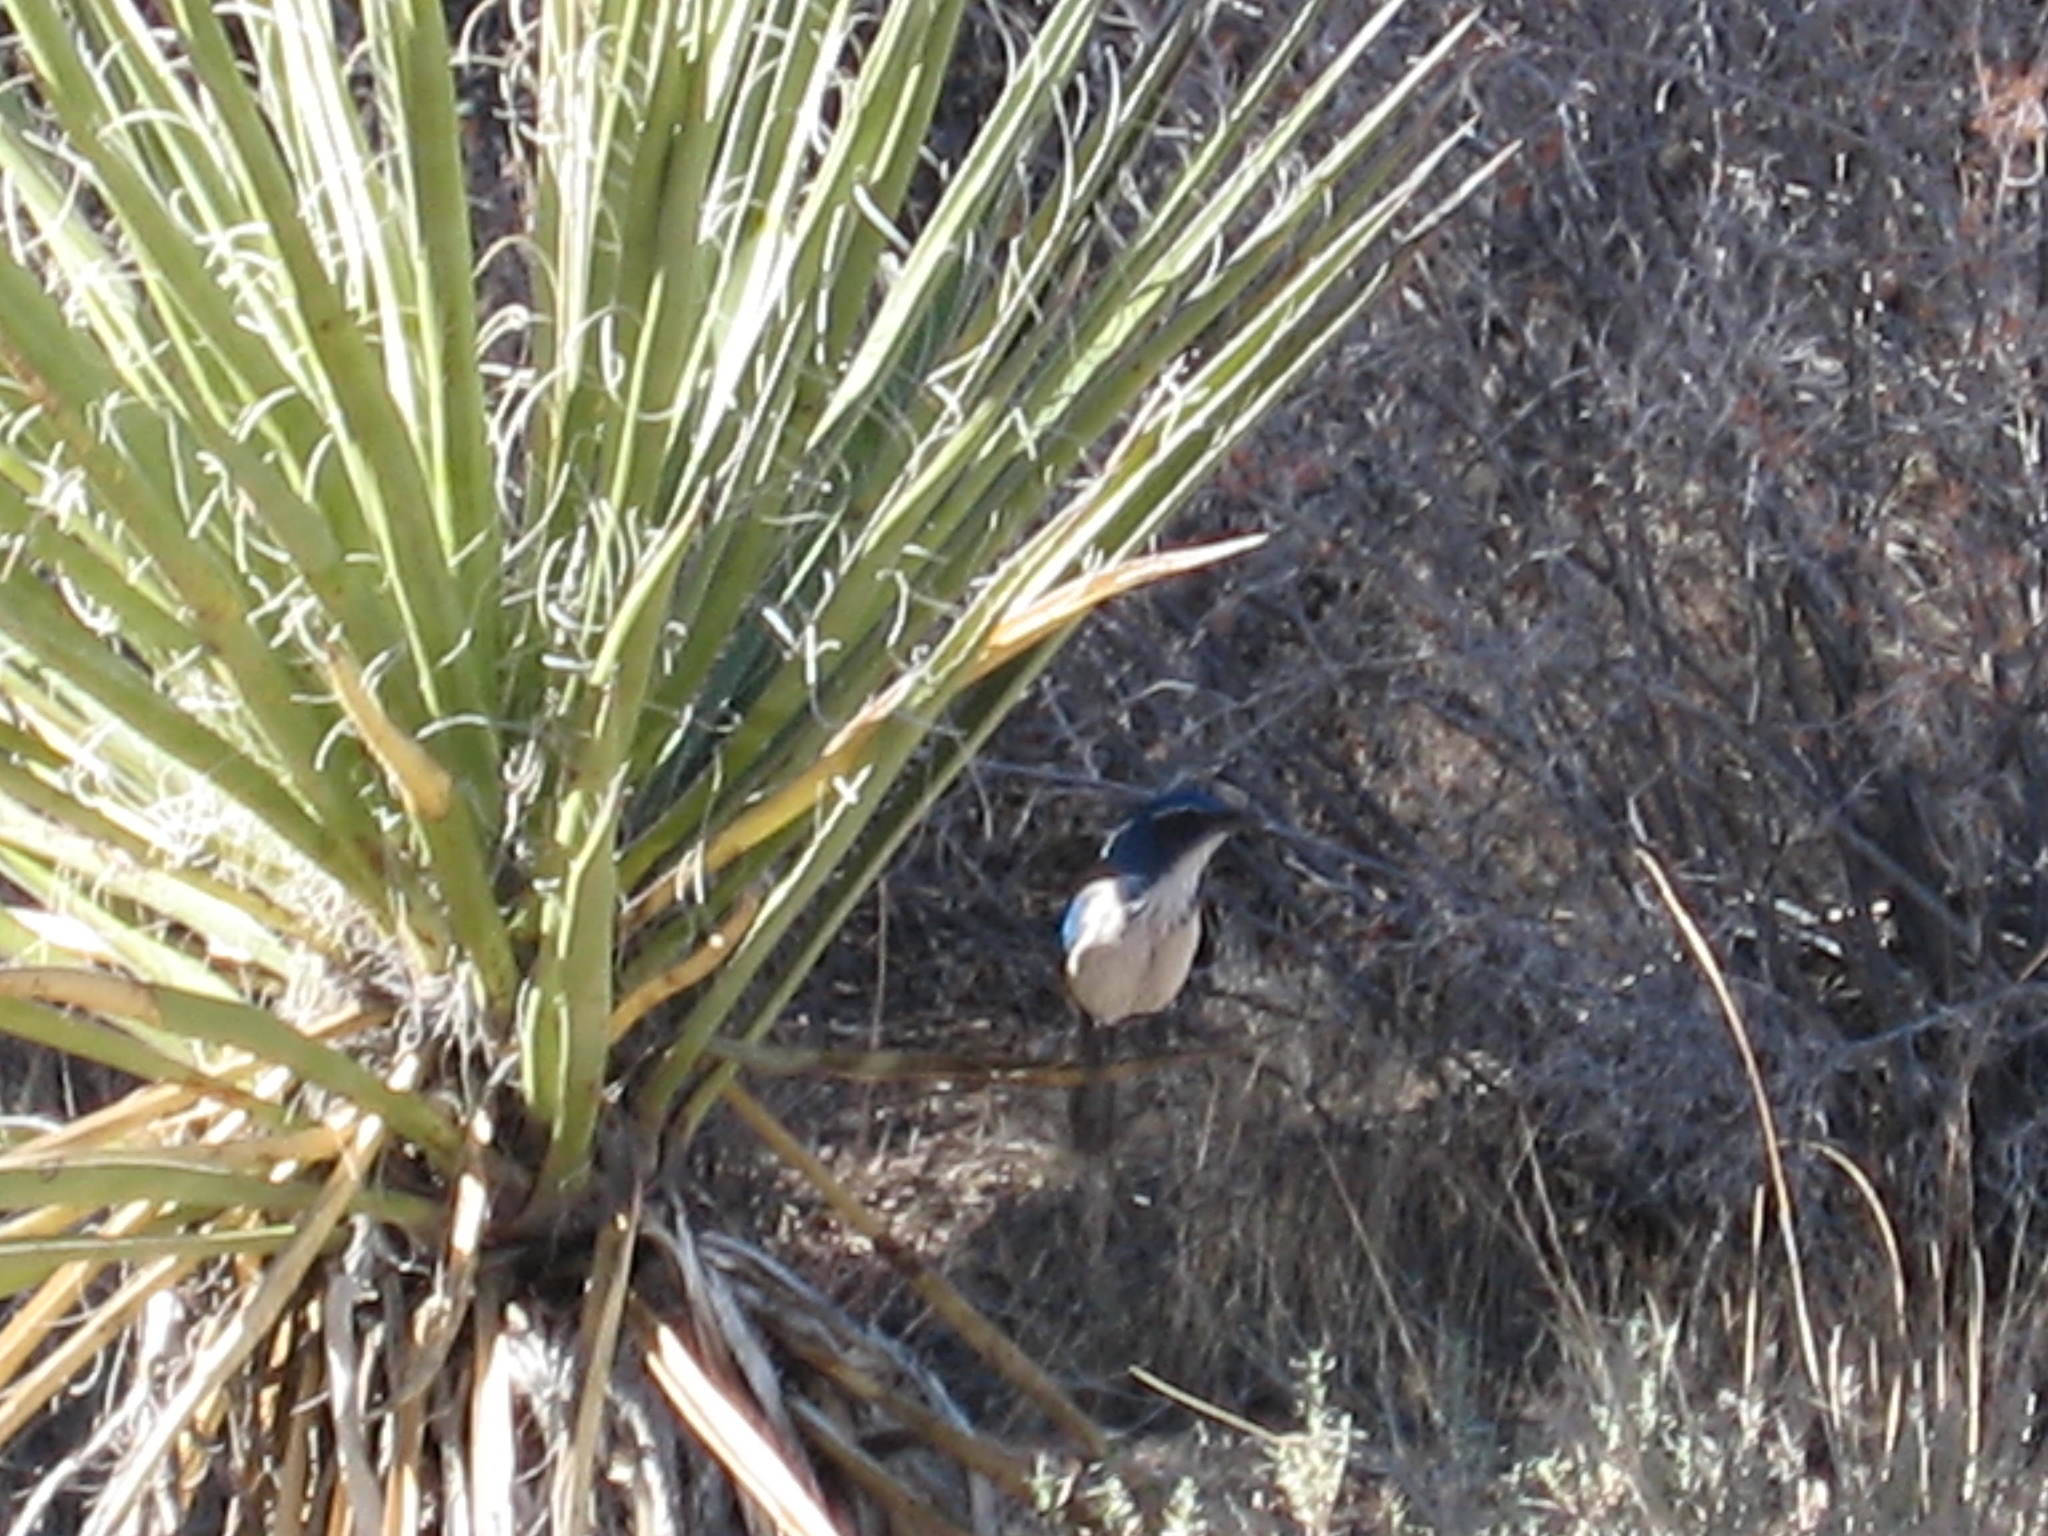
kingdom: Animalia
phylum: Chordata
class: Aves
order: Passeriformes
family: Corvidae
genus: Aphelocoma
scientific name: Aphelocoma californica
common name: California scrub-jay
